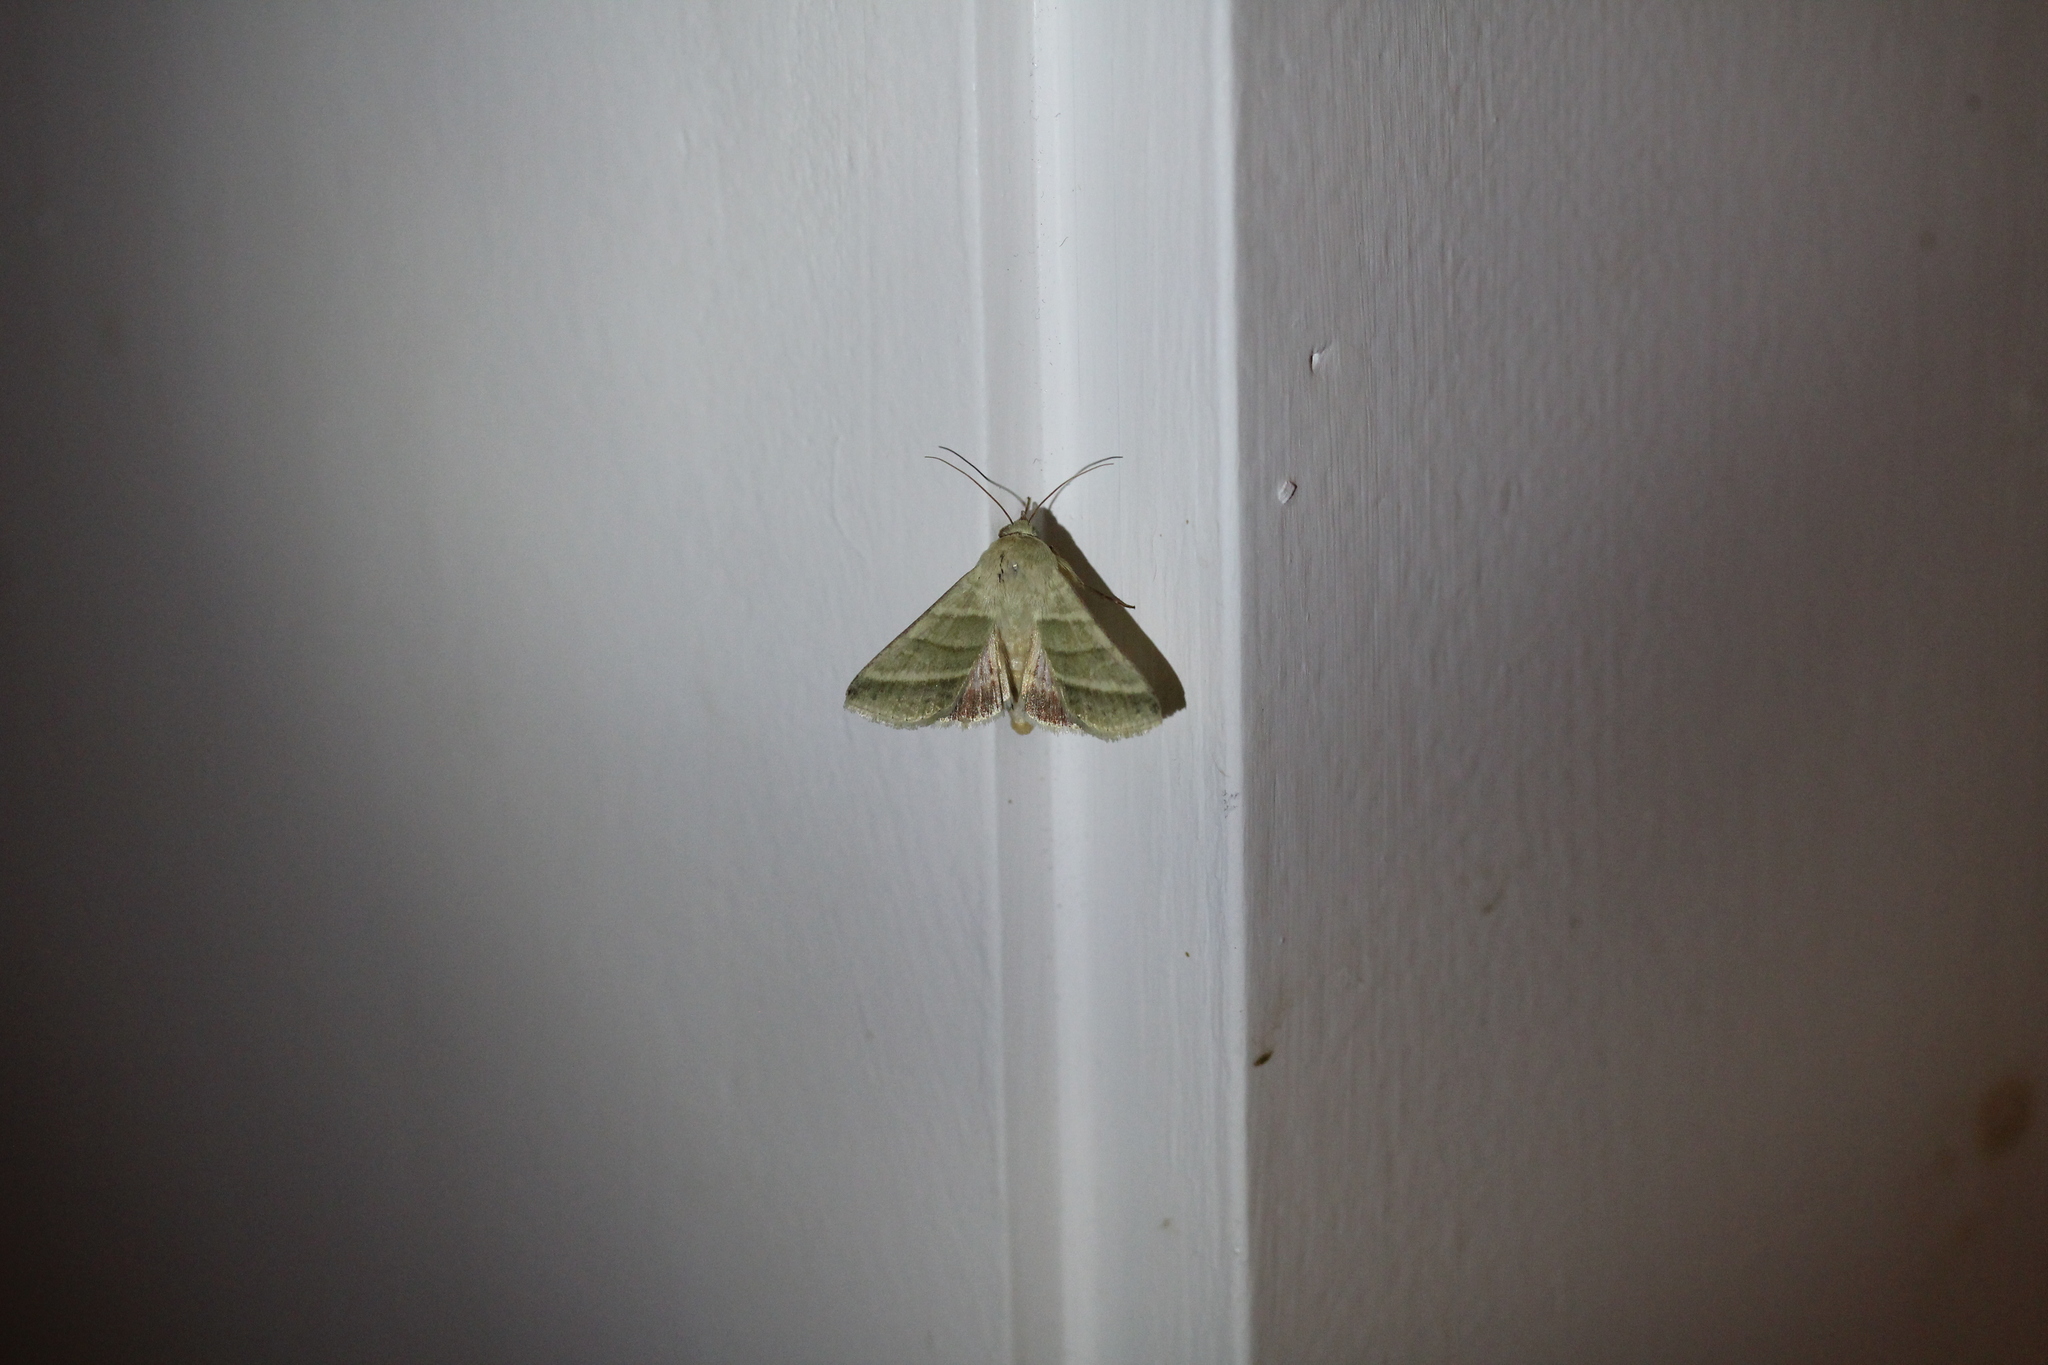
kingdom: Animalia
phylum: Arthropoda
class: Insecta
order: Lepidoptera
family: Noctuidae
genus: Chloridea
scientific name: Chloridea virescens
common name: Tobacco budworm
